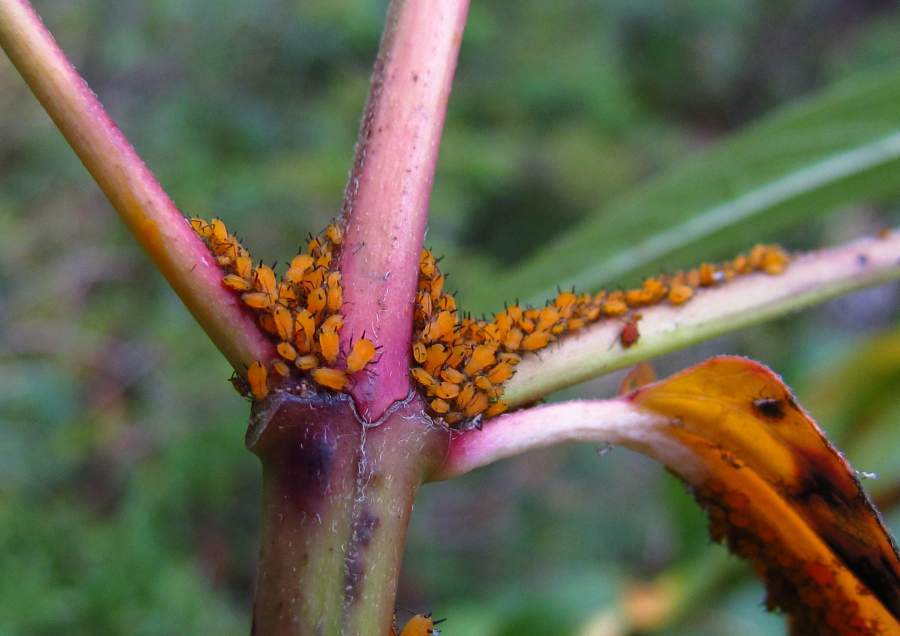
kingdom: Animalia
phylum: Arthropoda
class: Insecta
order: Hemiptera
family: Aphididae
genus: Aphis
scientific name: Aphis nerii
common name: Oleander aphid
